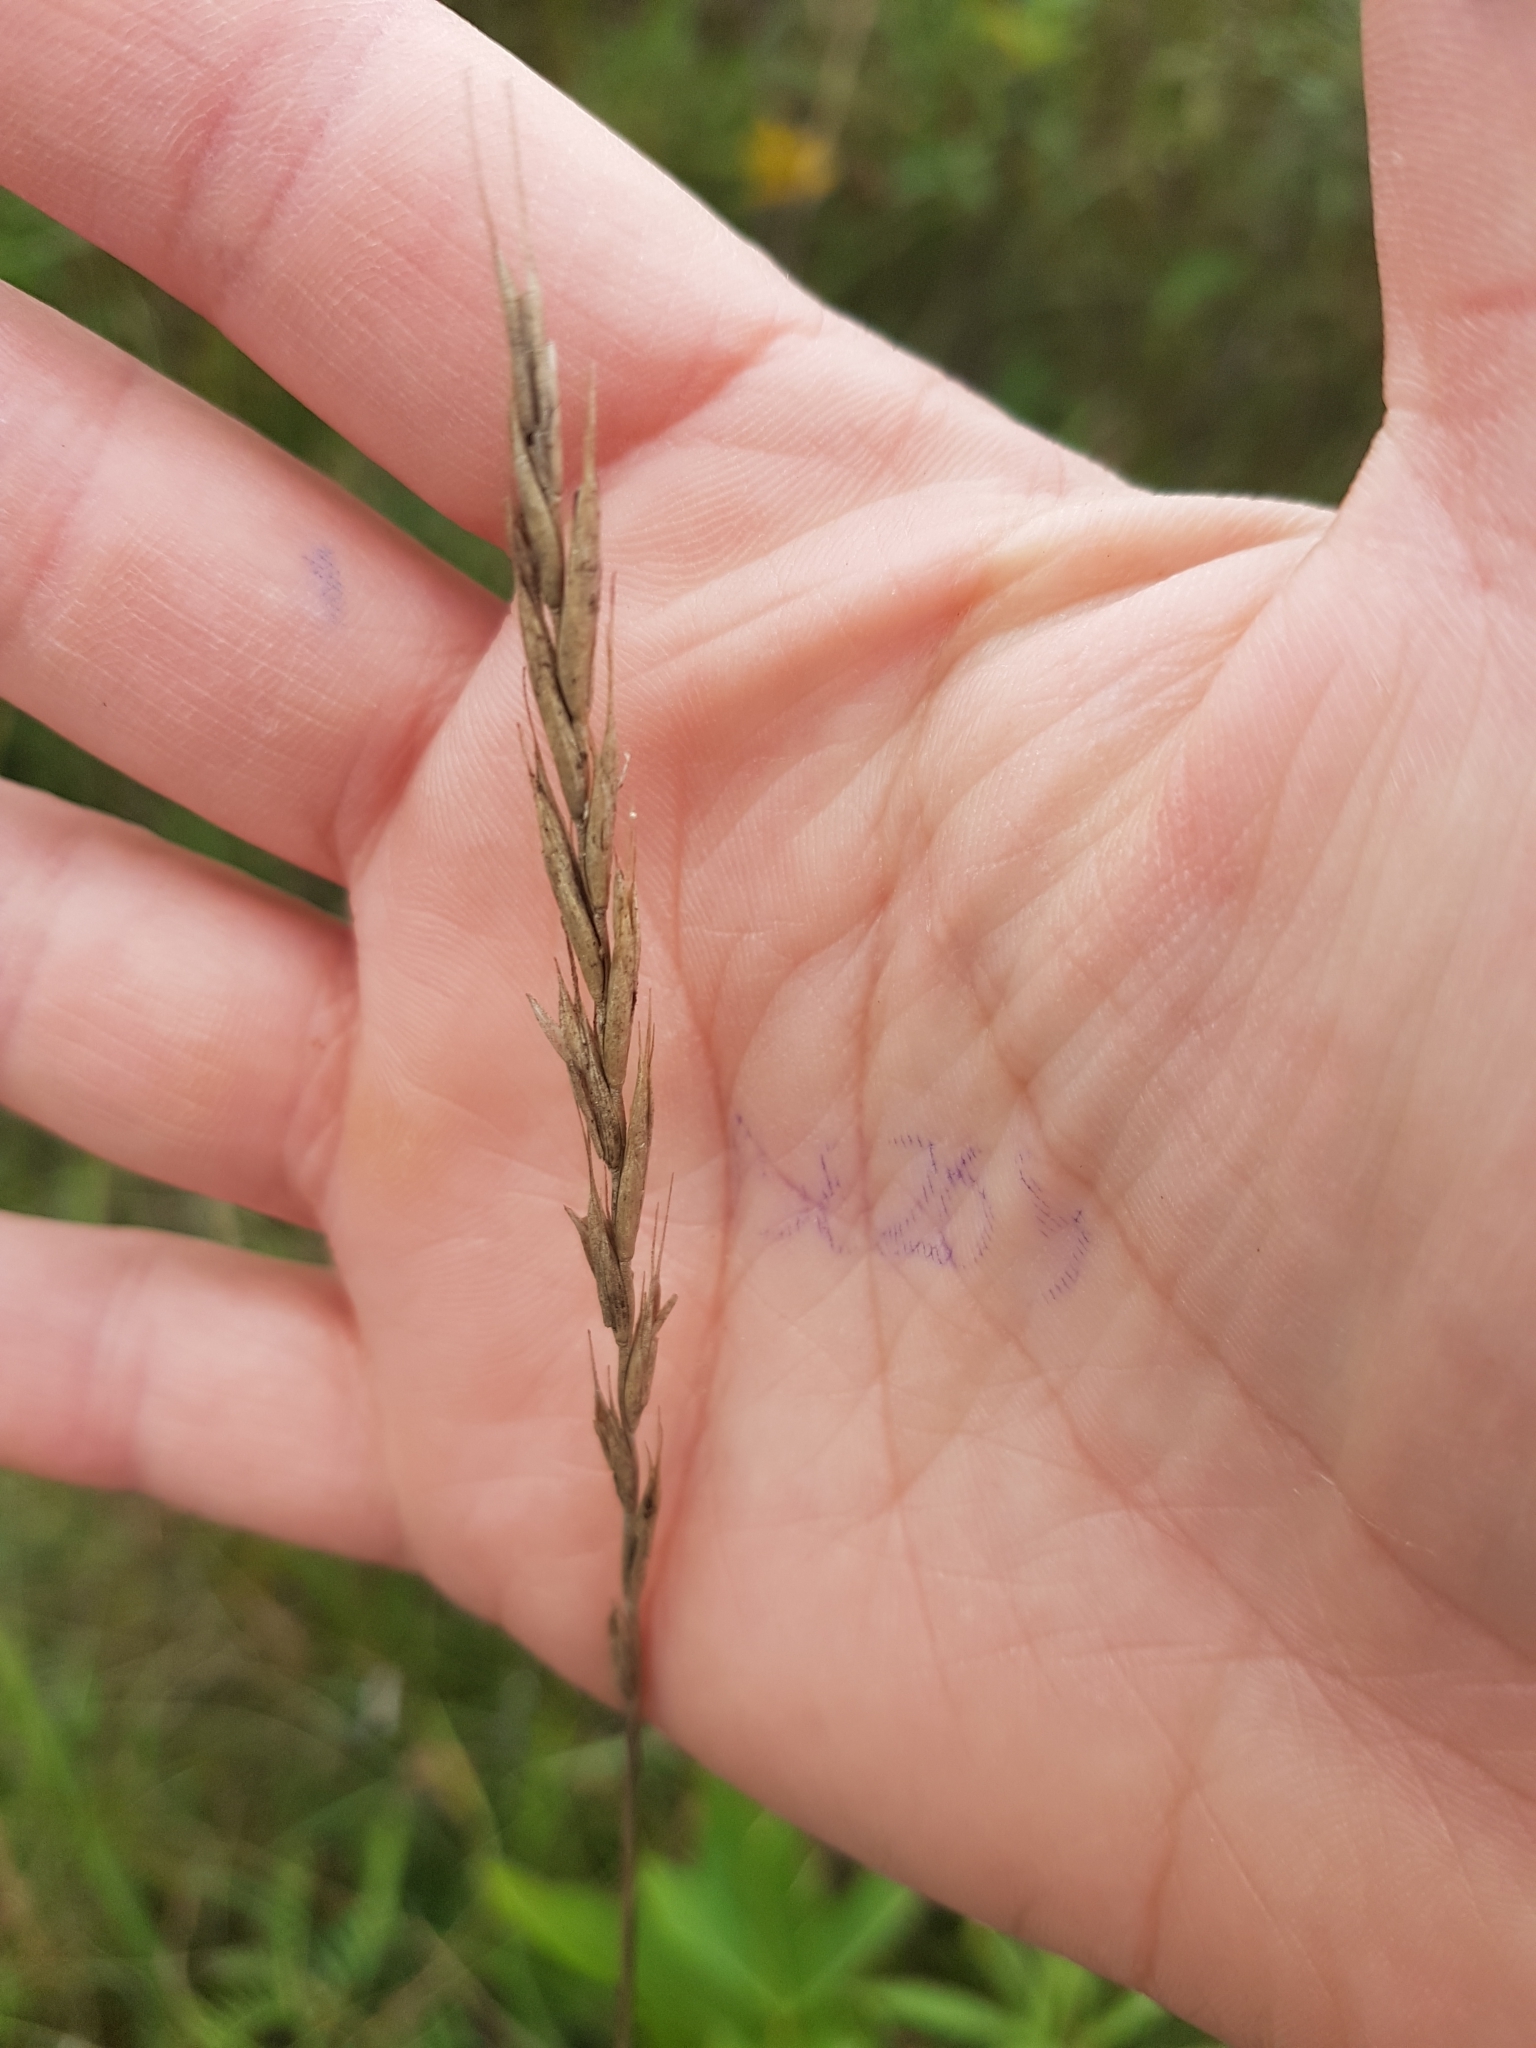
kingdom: Plantae
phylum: Tracheophyta
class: Liliopsida
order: Poales
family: Poaceae
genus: Elymus
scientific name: Elymus repens
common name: Quackgrass
